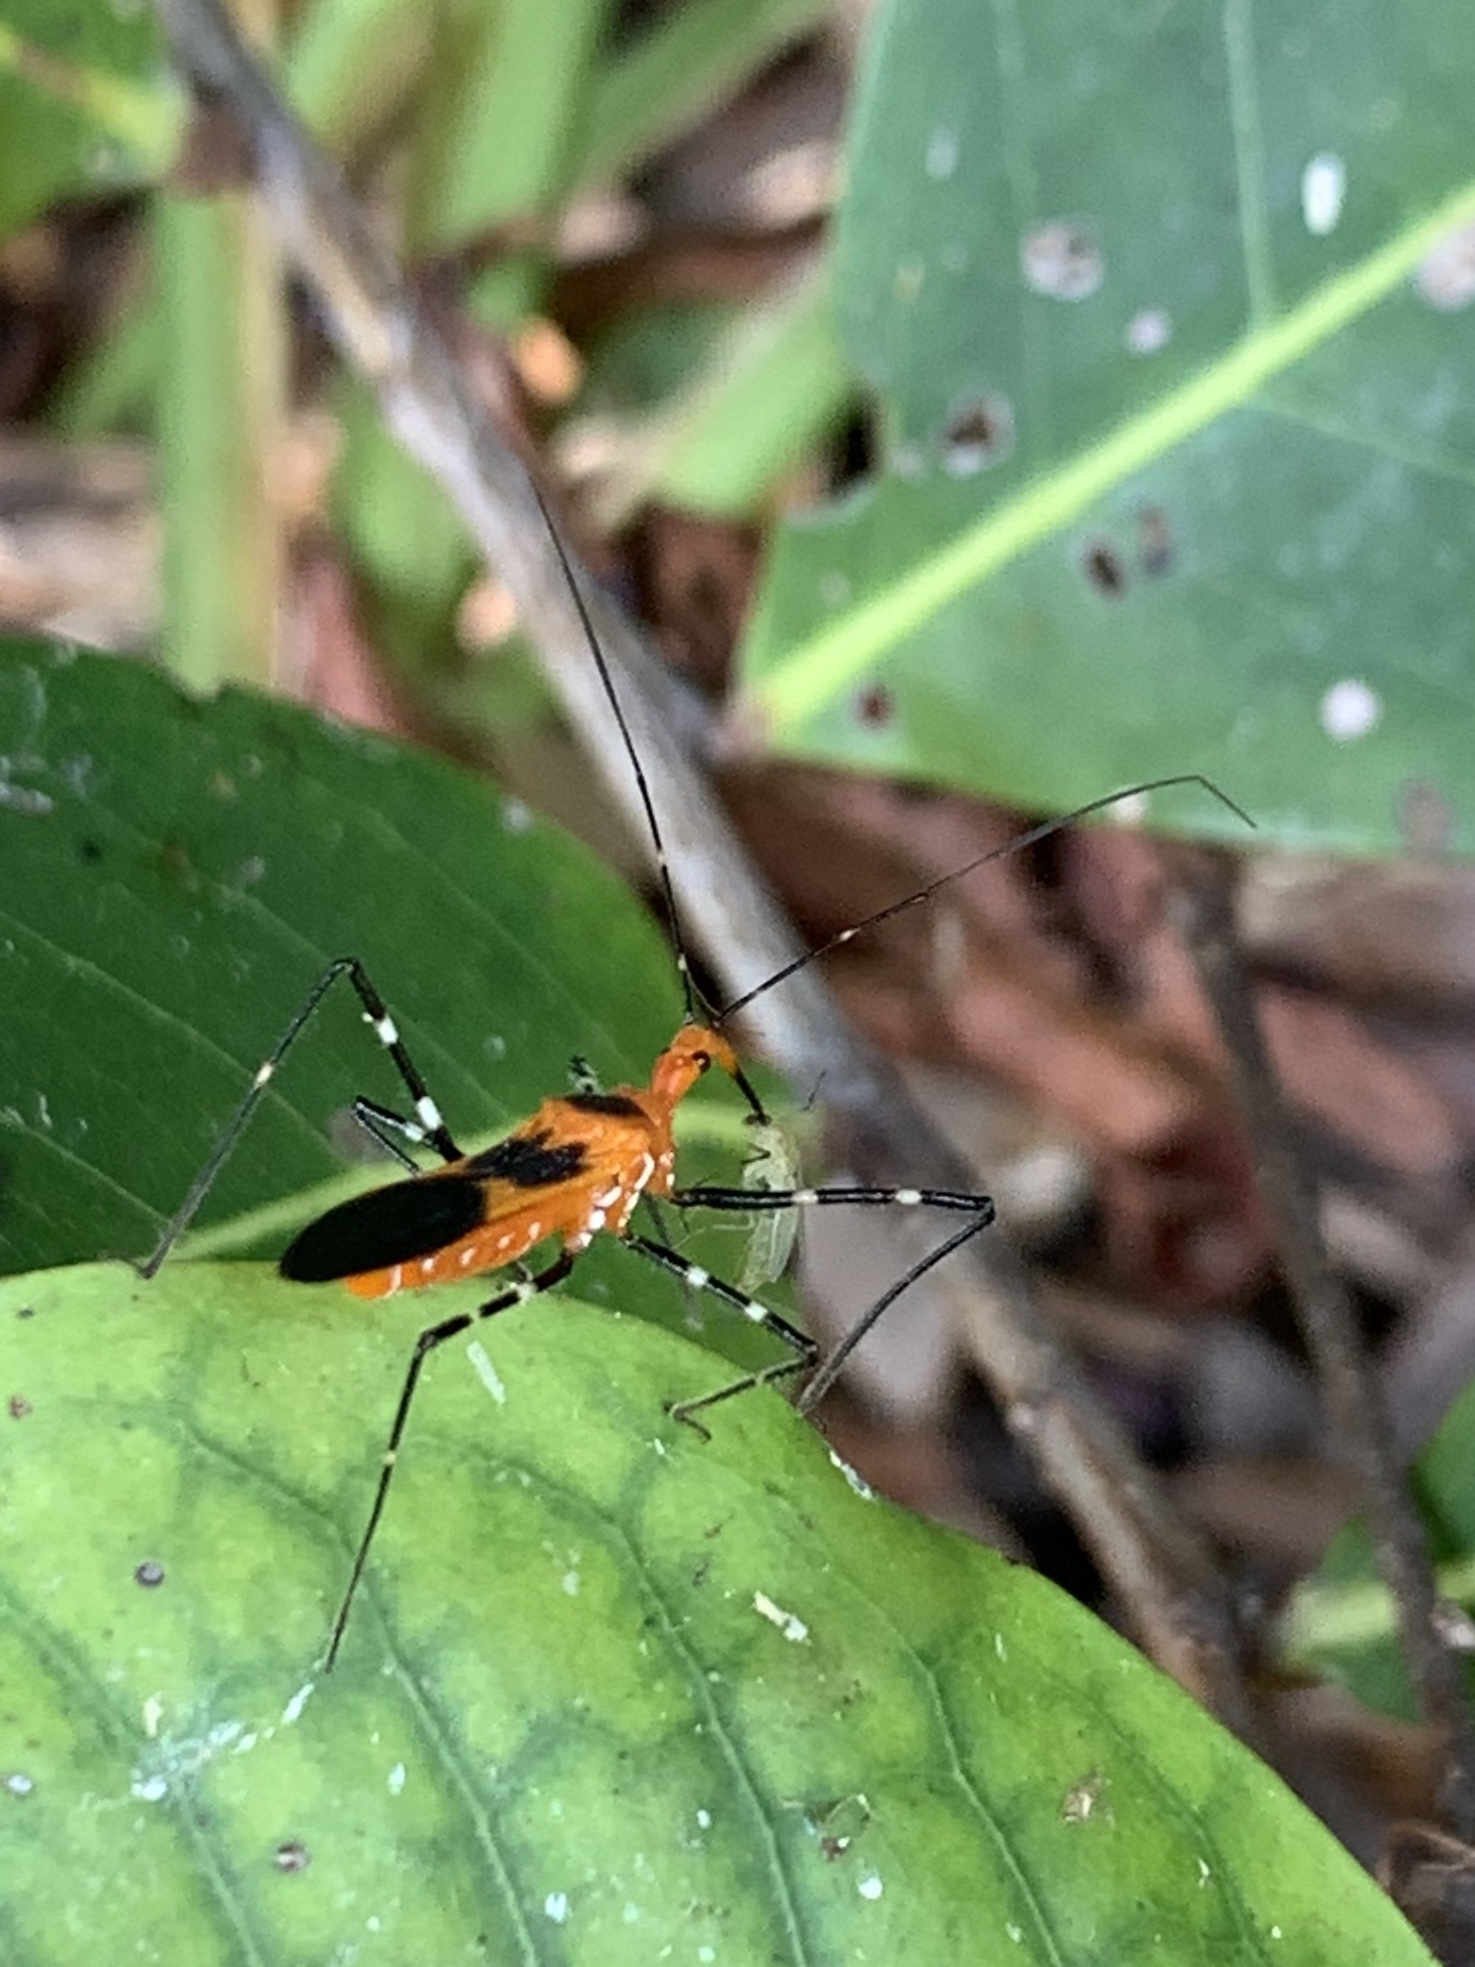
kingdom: Animalia
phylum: Arthropoda
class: Insecta
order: Hemiptera
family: Reduviidae
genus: Zelus
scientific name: Zelus longipes
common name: Milkweed assassin bug
